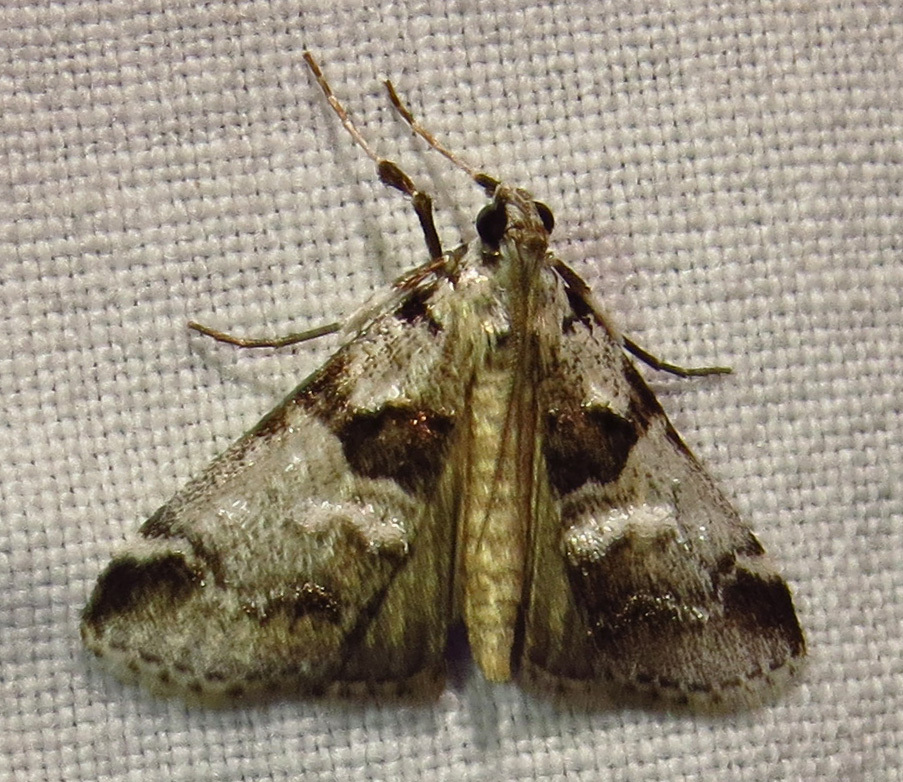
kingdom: Animalia
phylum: Arthropoda
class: Insecta
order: Lepidoptera
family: Pyralidae
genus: Tallula
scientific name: Tallula atrifascialis
